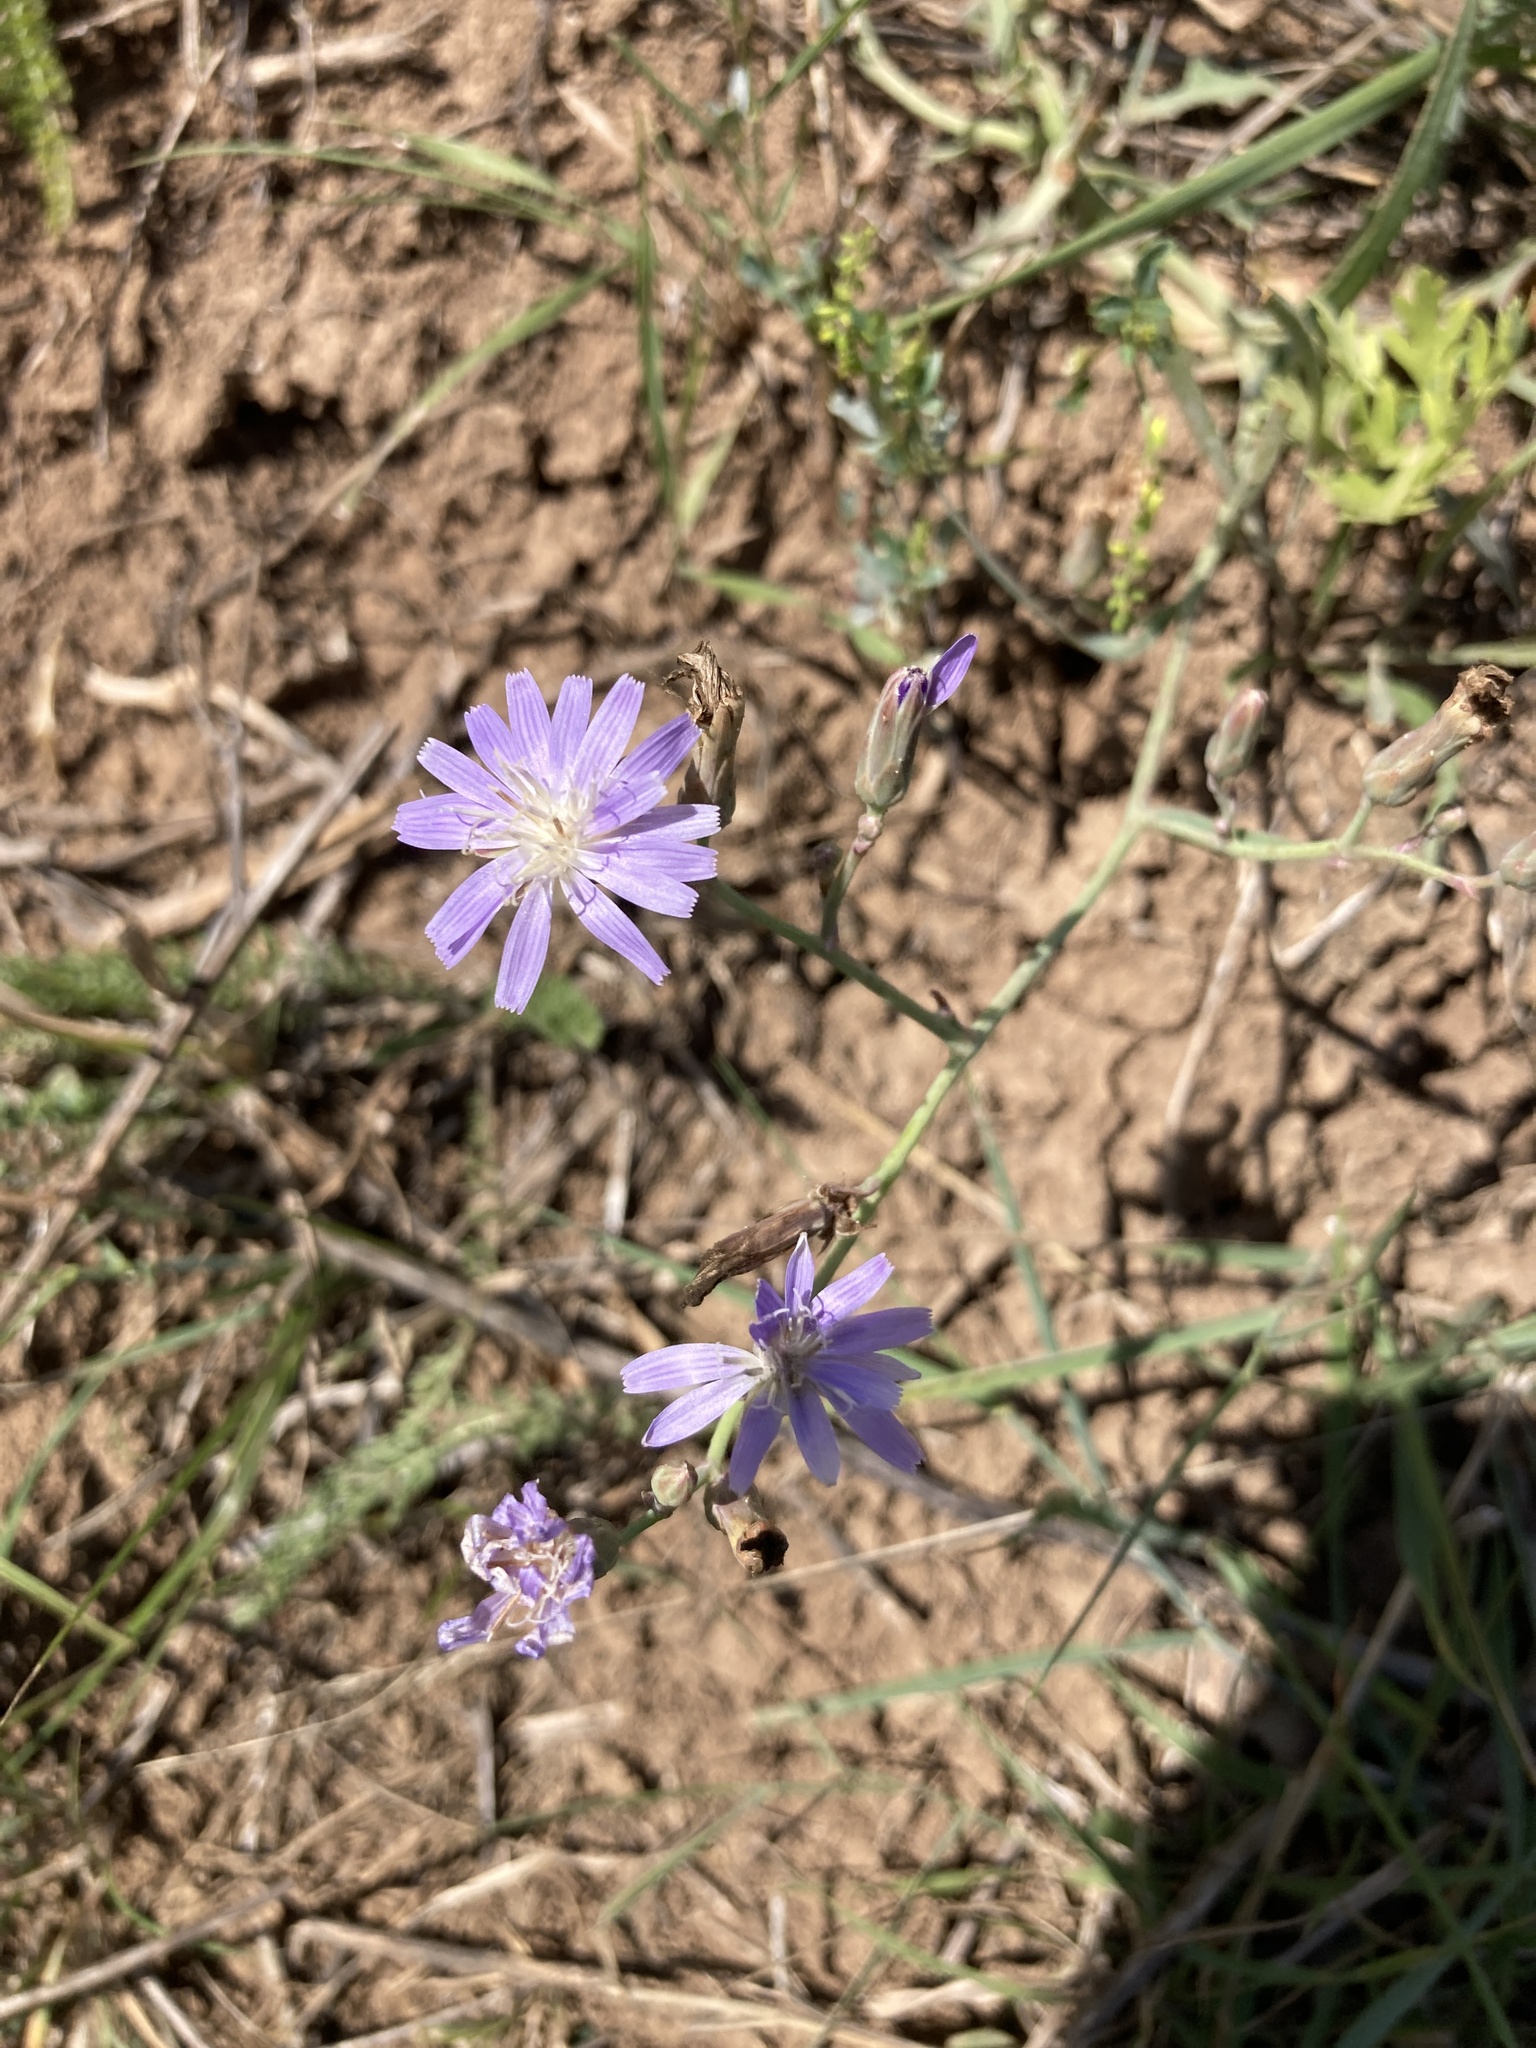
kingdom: Plantae
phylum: Tracheophyta
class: Magnoliopsida
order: Asterales
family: Asteraceae
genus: Lactuca
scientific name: Lactuca tatarica
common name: Blue lettuce
